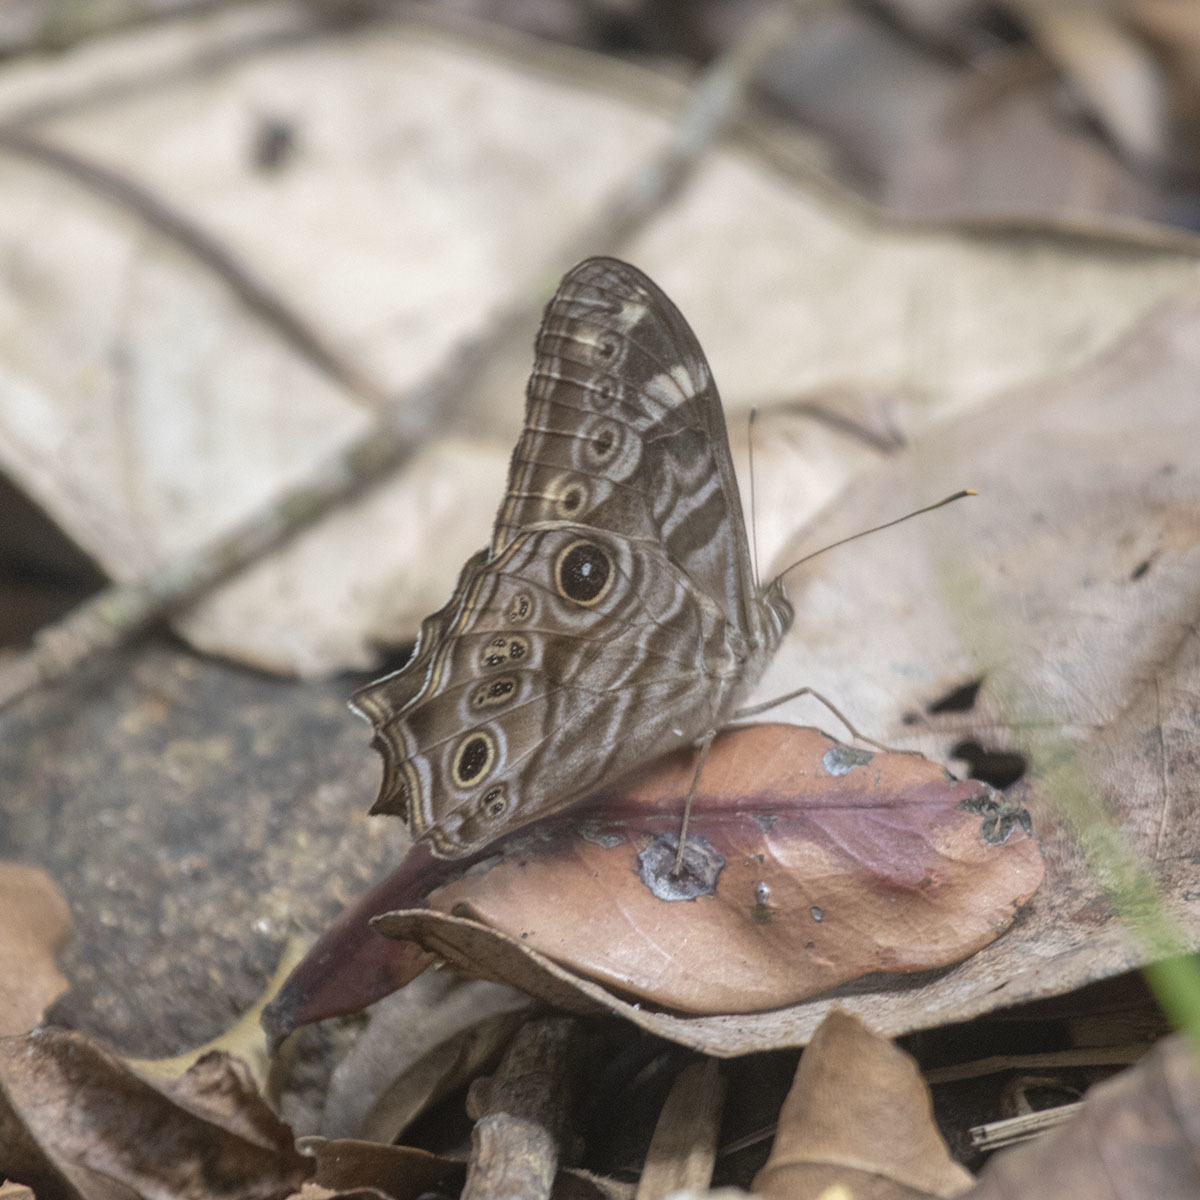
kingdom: Animalia
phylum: Arthropoda
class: Insecta
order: Lepidoptera
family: Nymphalidae
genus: Lethe
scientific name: Lethe rohria
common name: Common treebrown
